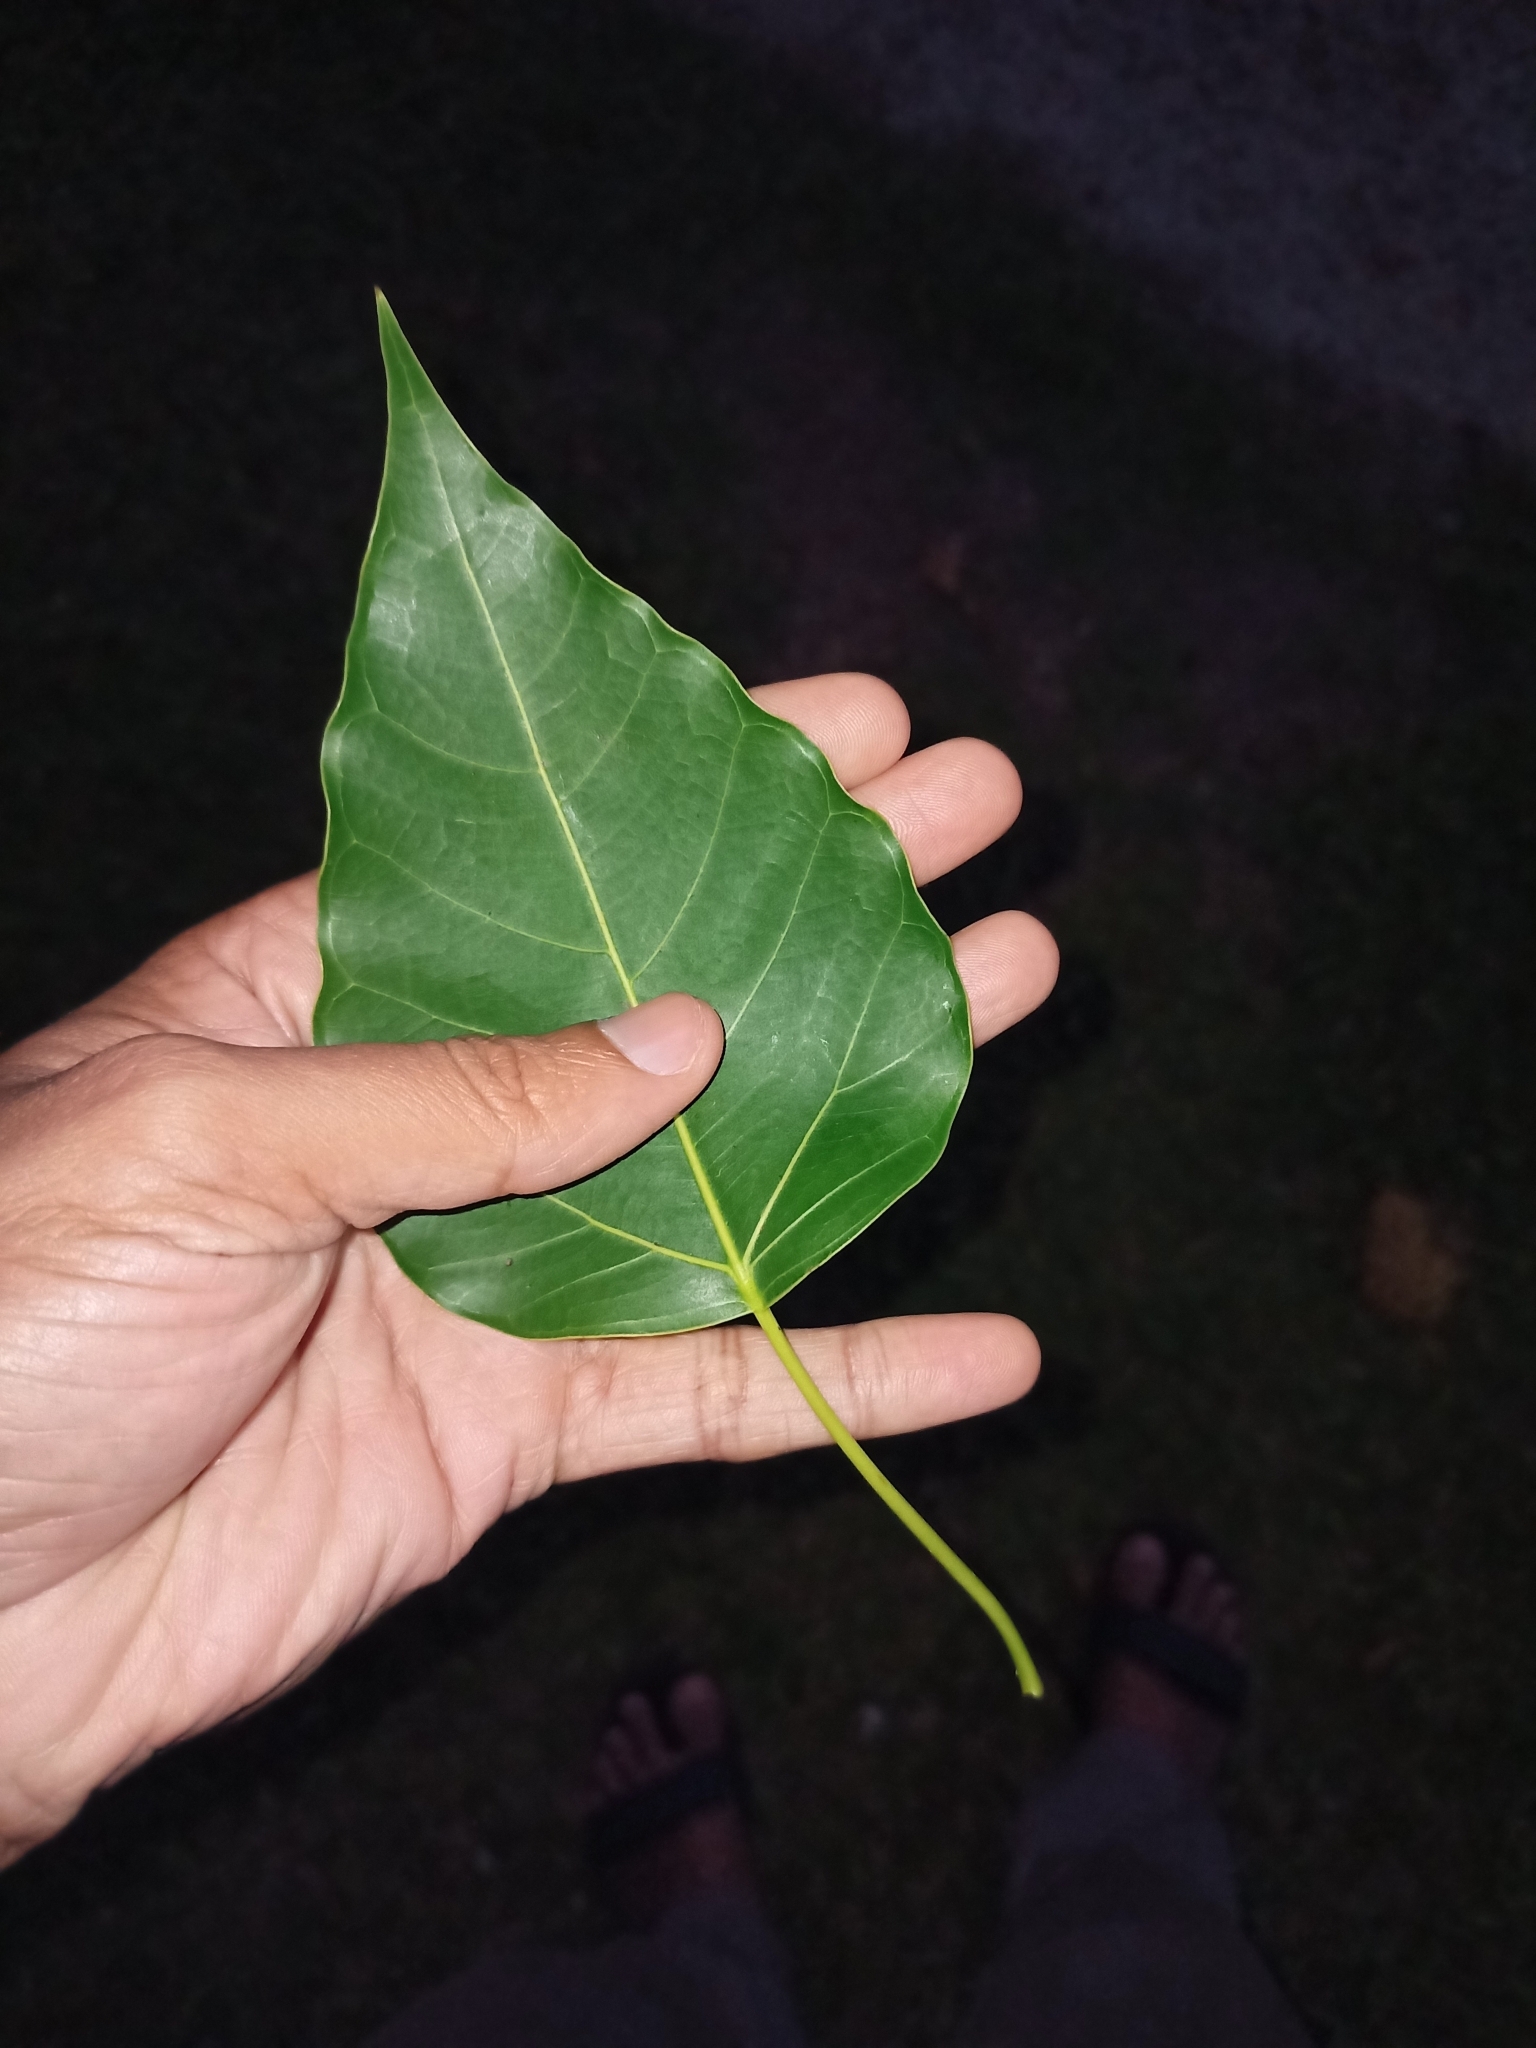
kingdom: Plantae
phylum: Tracheophyta
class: Magnoliopsida
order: Rosales
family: Moraceae
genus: Ficus
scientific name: Ficus rumphii
